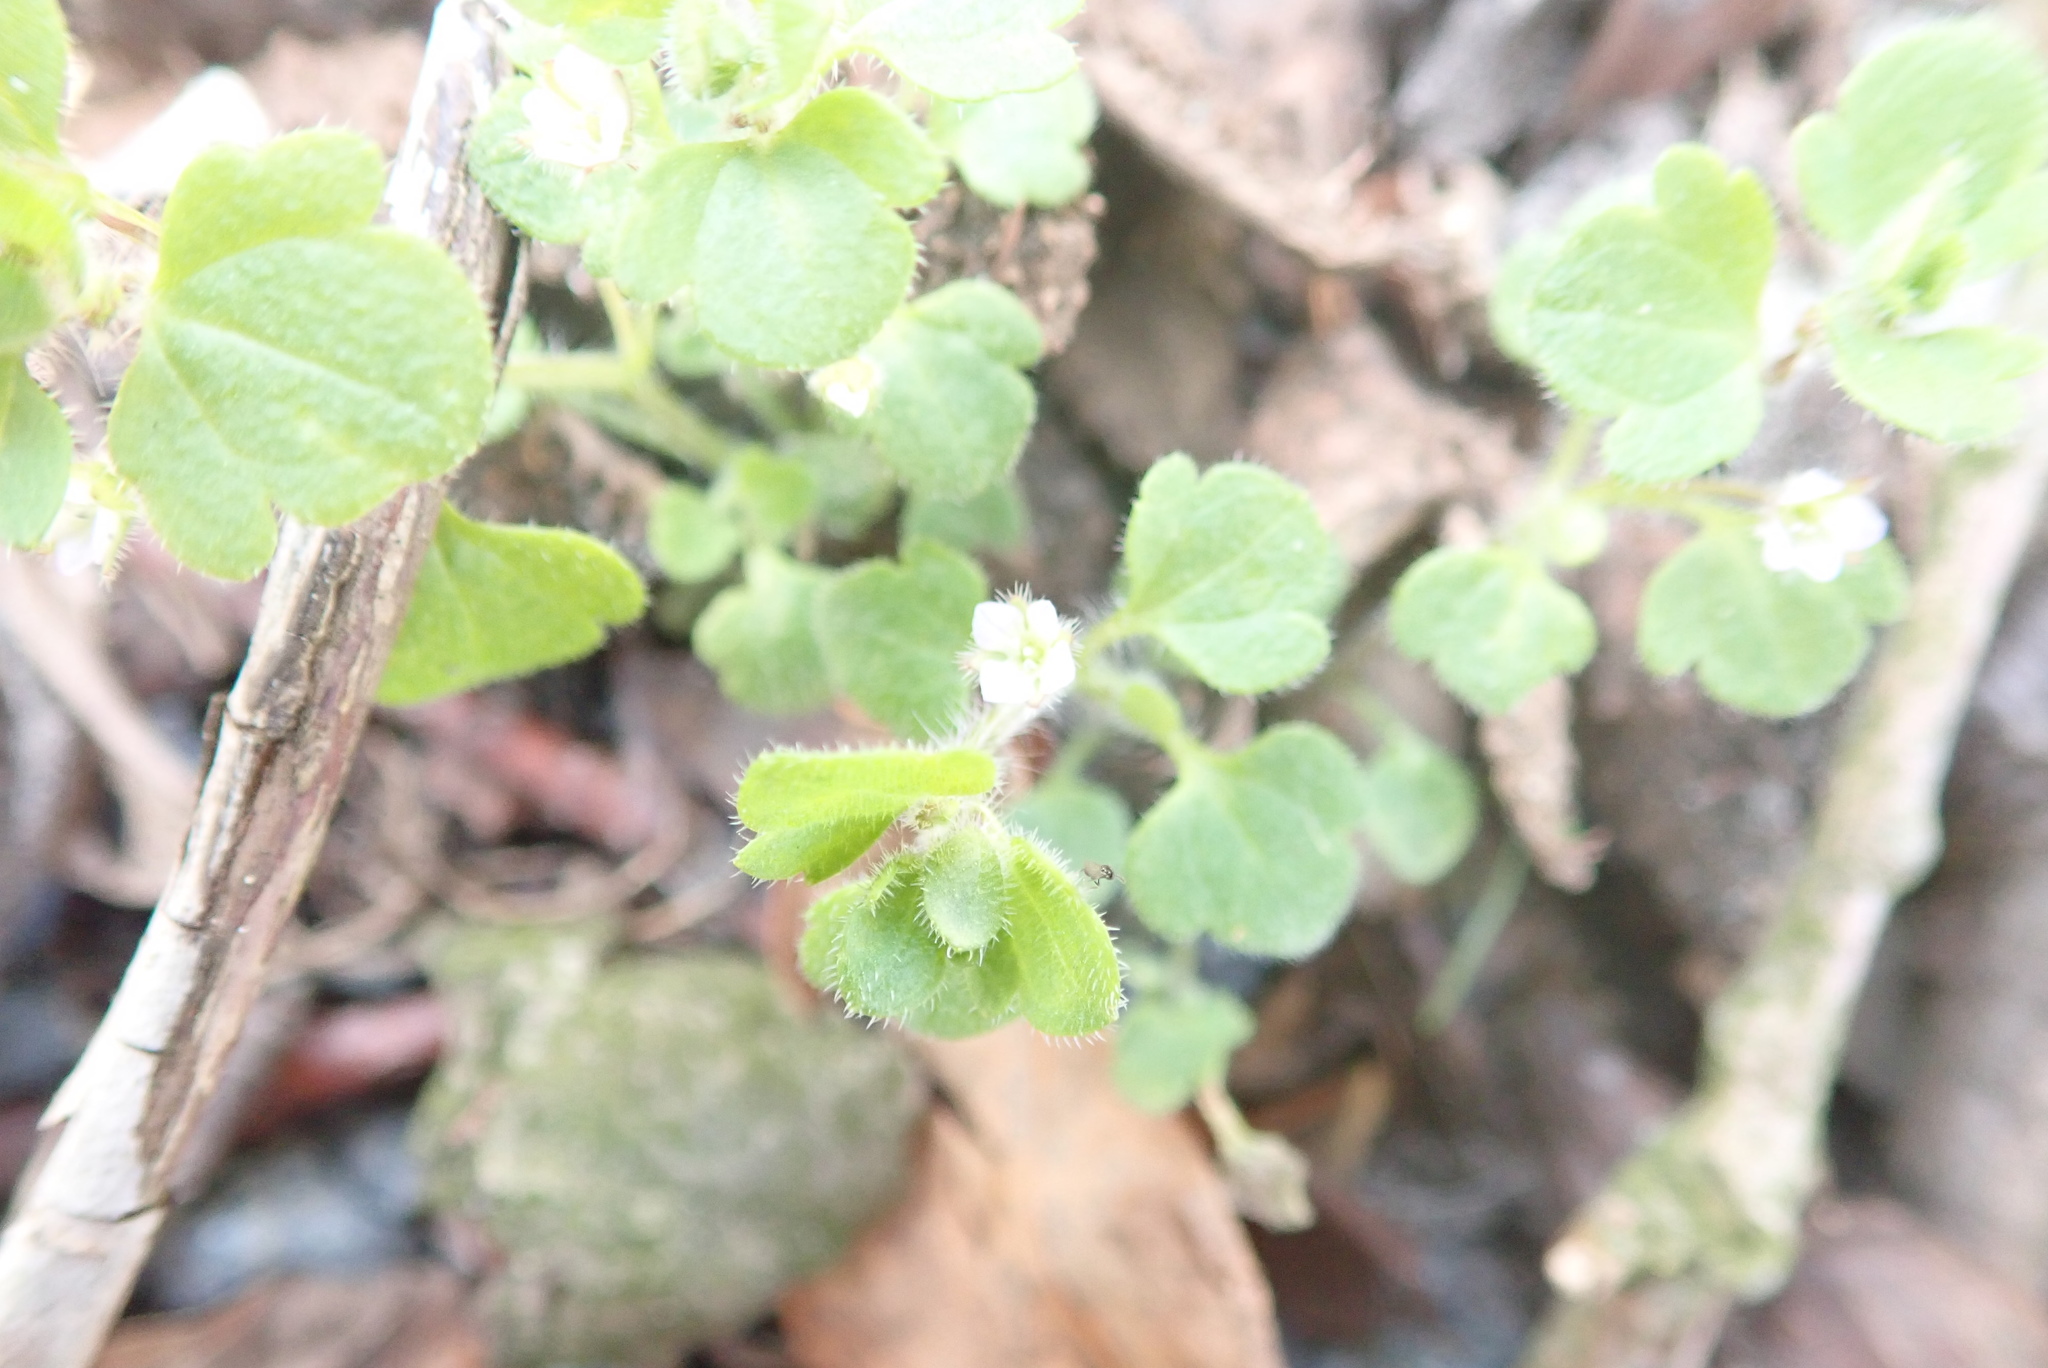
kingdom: Plantae
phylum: Tracheophyta
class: Magnoliopsida
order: Lamiales
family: Plantaginaceae
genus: Veronica
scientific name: Veronica hederifolia
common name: Ivy-leaved speedwell
